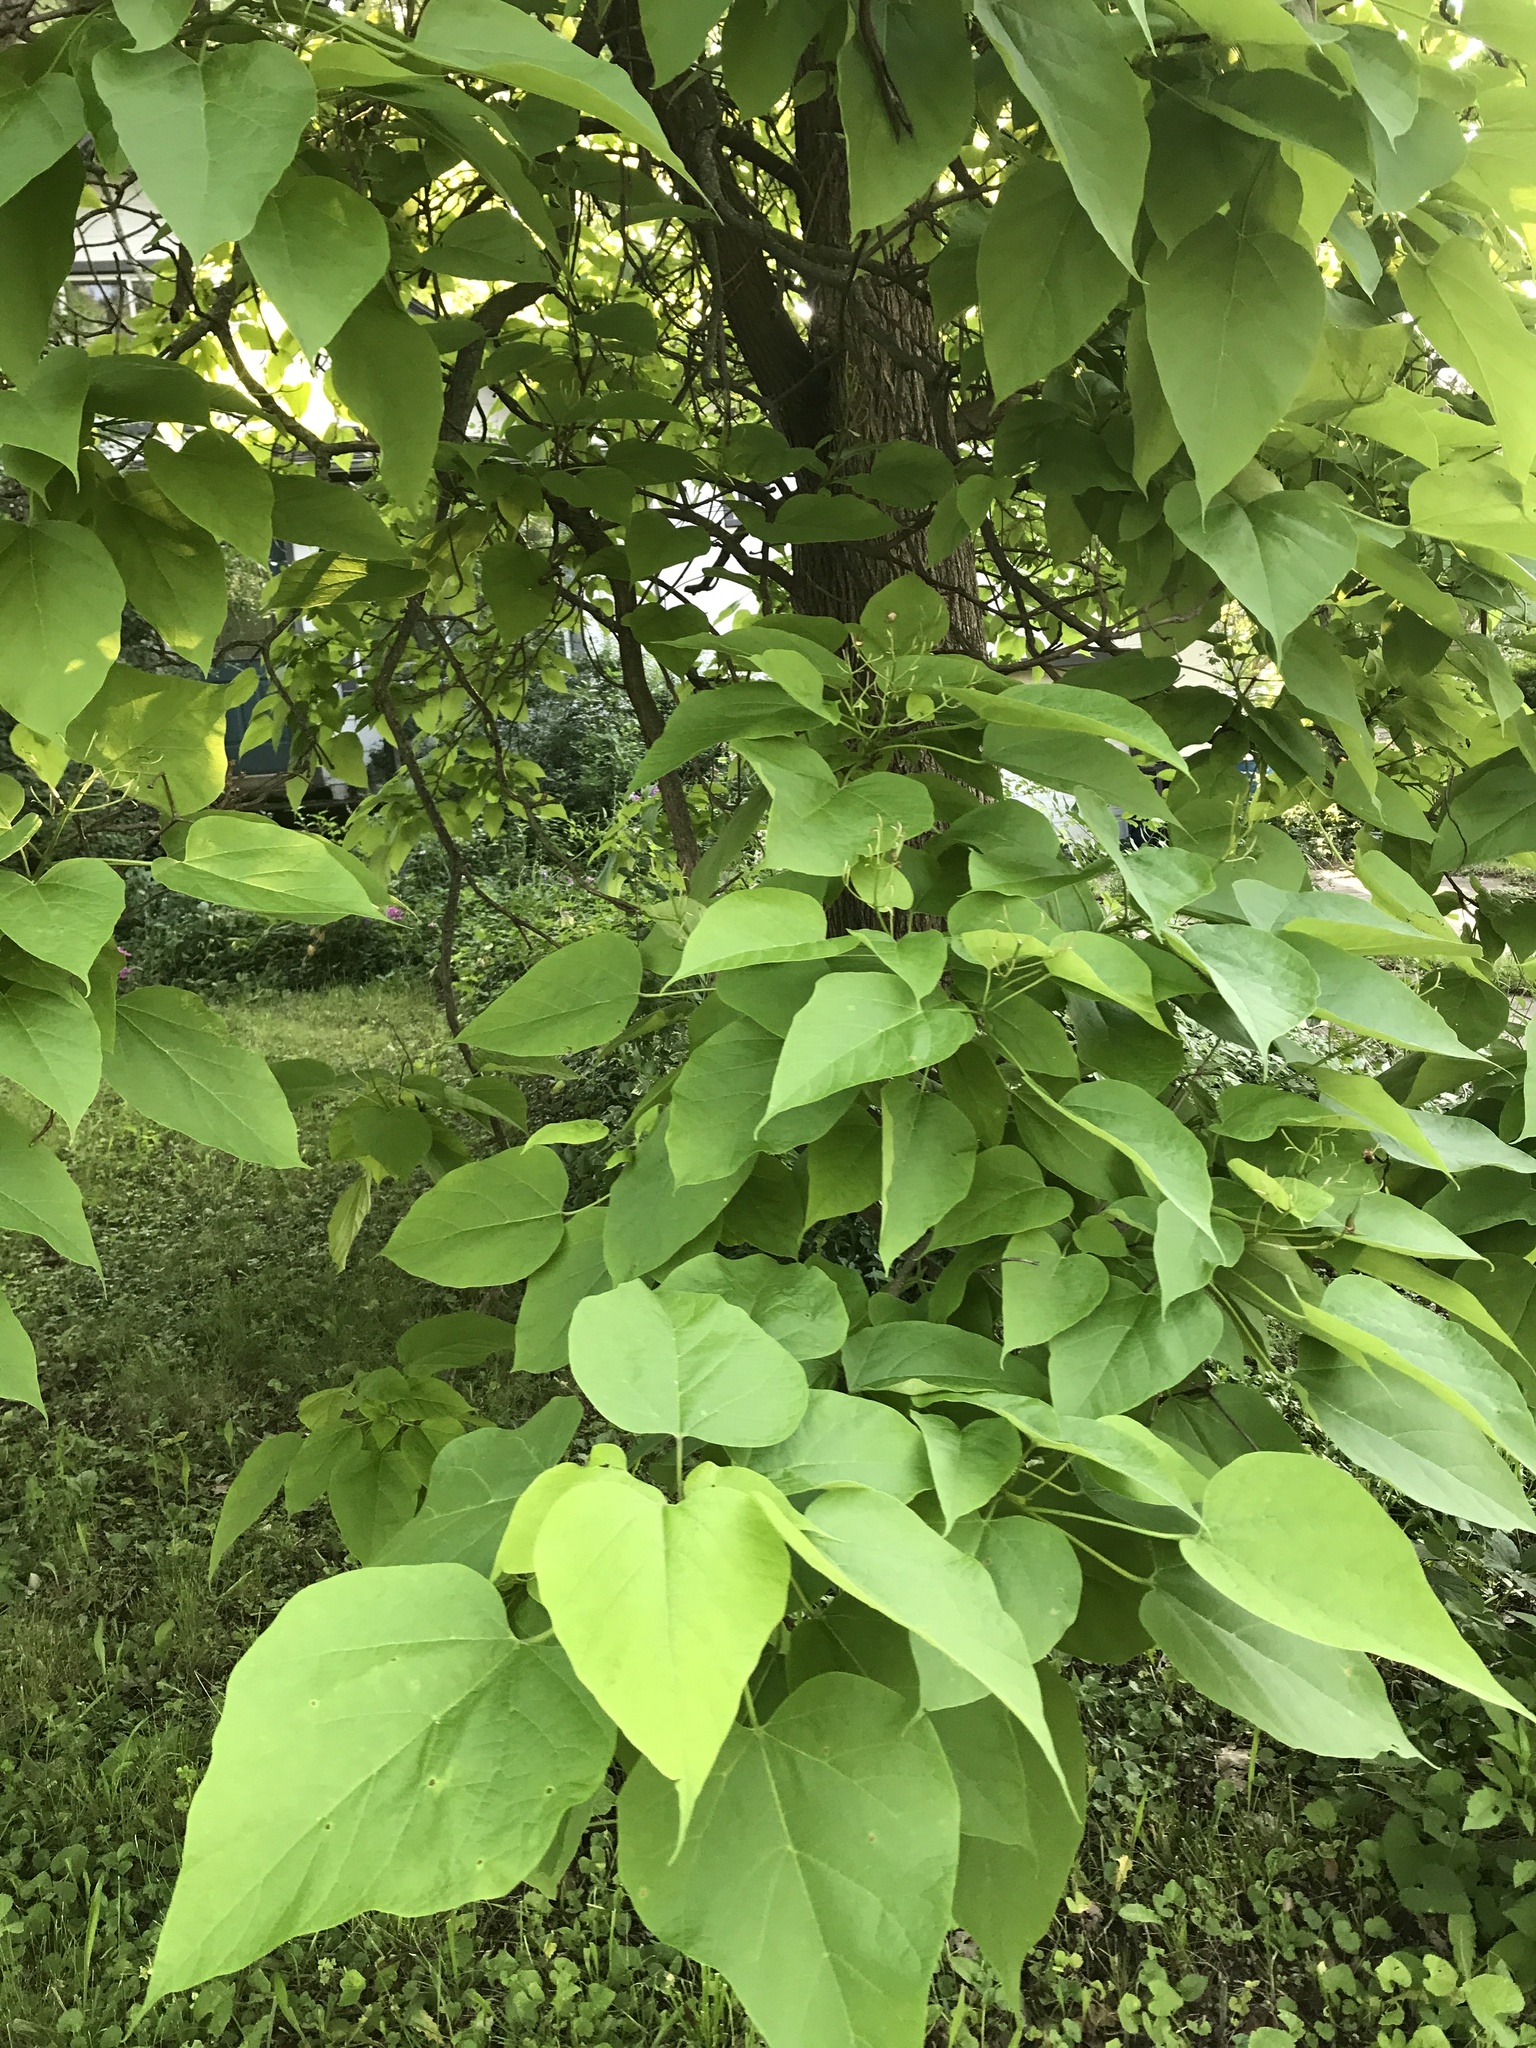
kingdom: Plantae
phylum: Tracheophyta
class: Magnoliopsida
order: Lamiales
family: Bignoniaceae
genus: Catalpa
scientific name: Catalpa speciosa
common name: Northern catalpa
